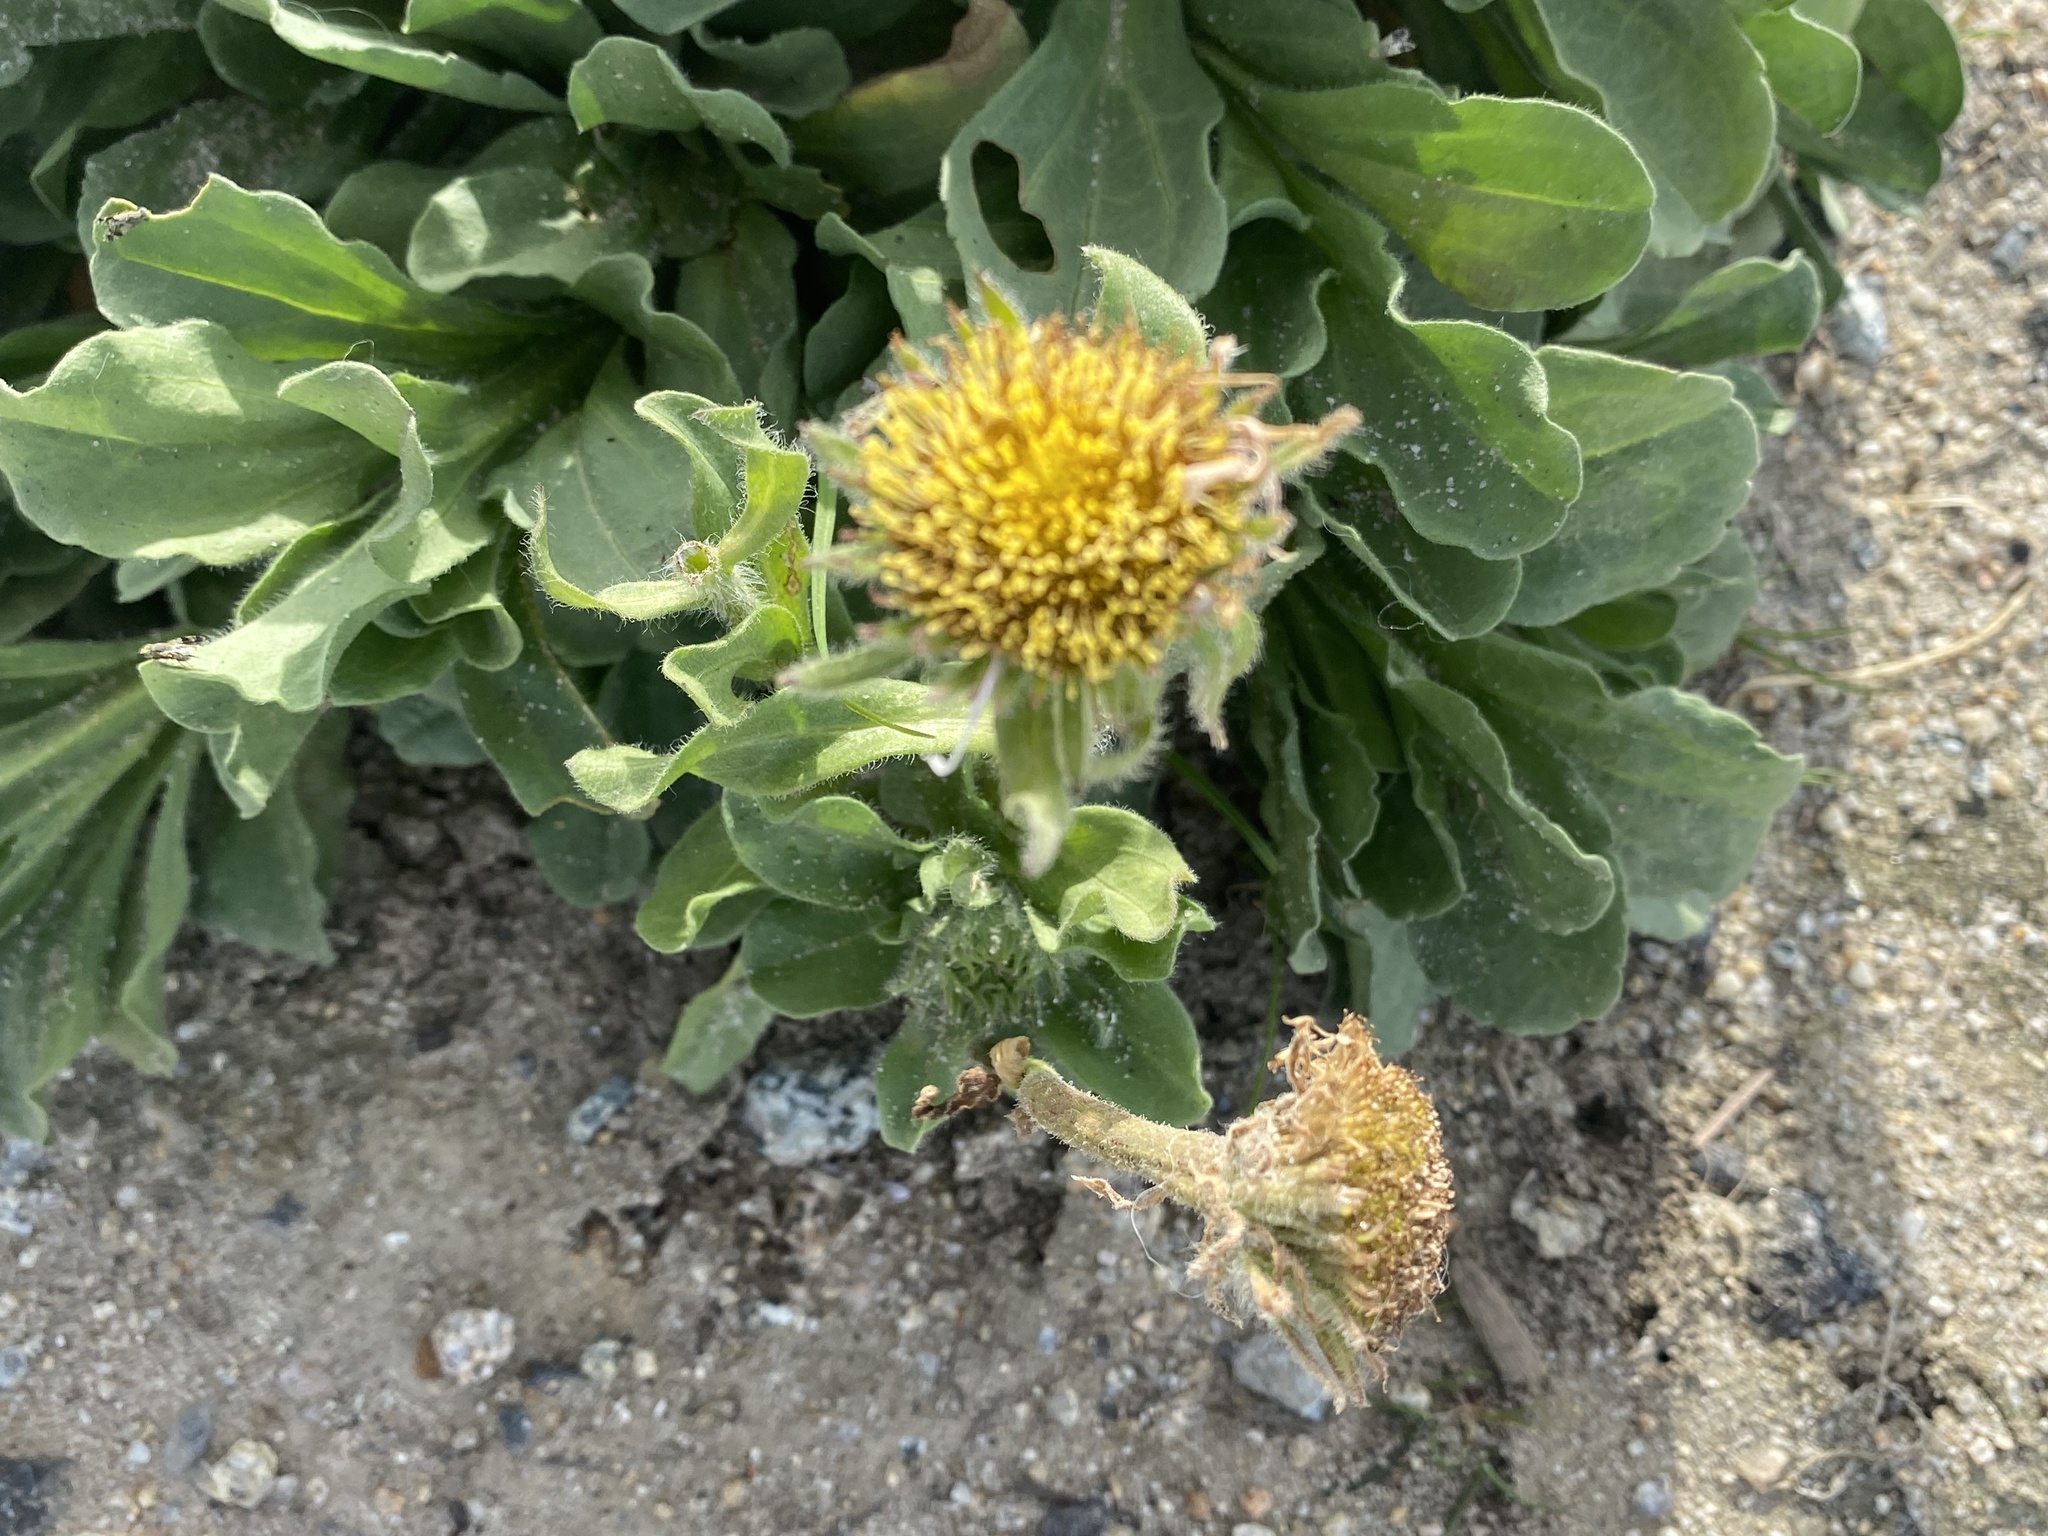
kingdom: Plantae
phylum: Tracheophyta
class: Magnoliopsida
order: Asterales
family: Asteraceae
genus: Erigeron
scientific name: Erigeron glaucus
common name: Seaside daisy
